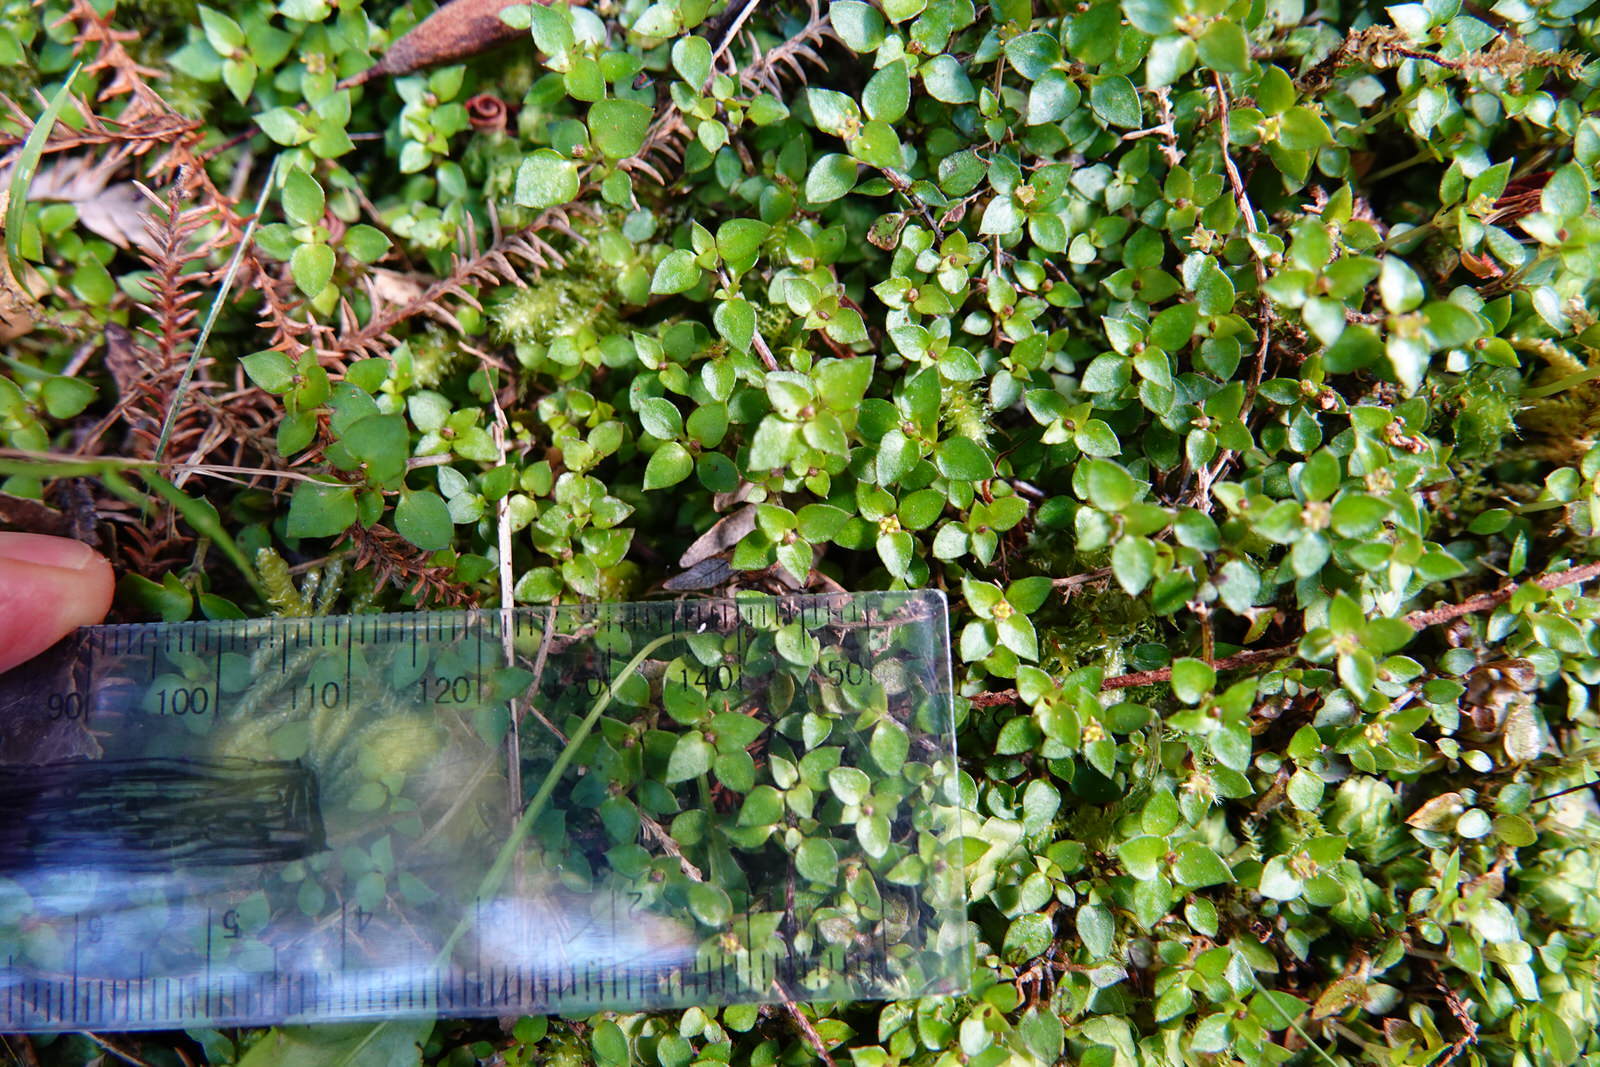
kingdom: Plantae
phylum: Tracheophyta
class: Magnoliopsida
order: Gentianales
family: Rubiaceae
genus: Nertera
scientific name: Nertera granadensis
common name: Beadplant
